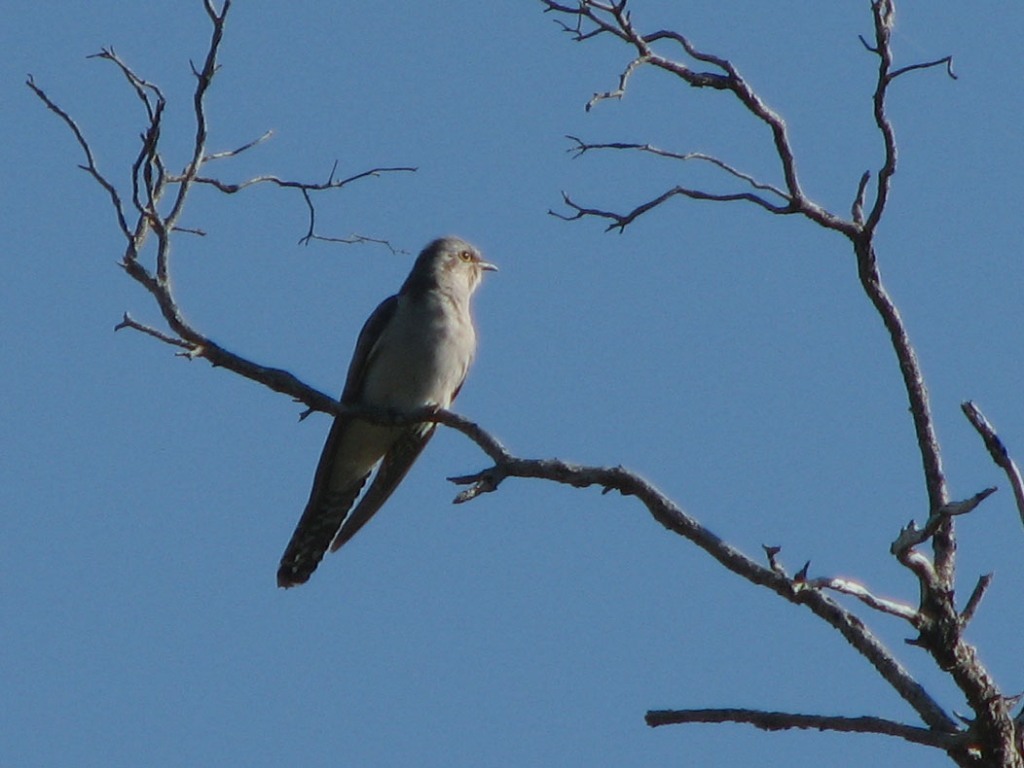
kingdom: Animalia
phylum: Chordata
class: Aves
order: Cuculiformes
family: Cuculidae
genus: Cuculus
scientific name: Cuculus pallidus
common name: Pallid cuckoo
